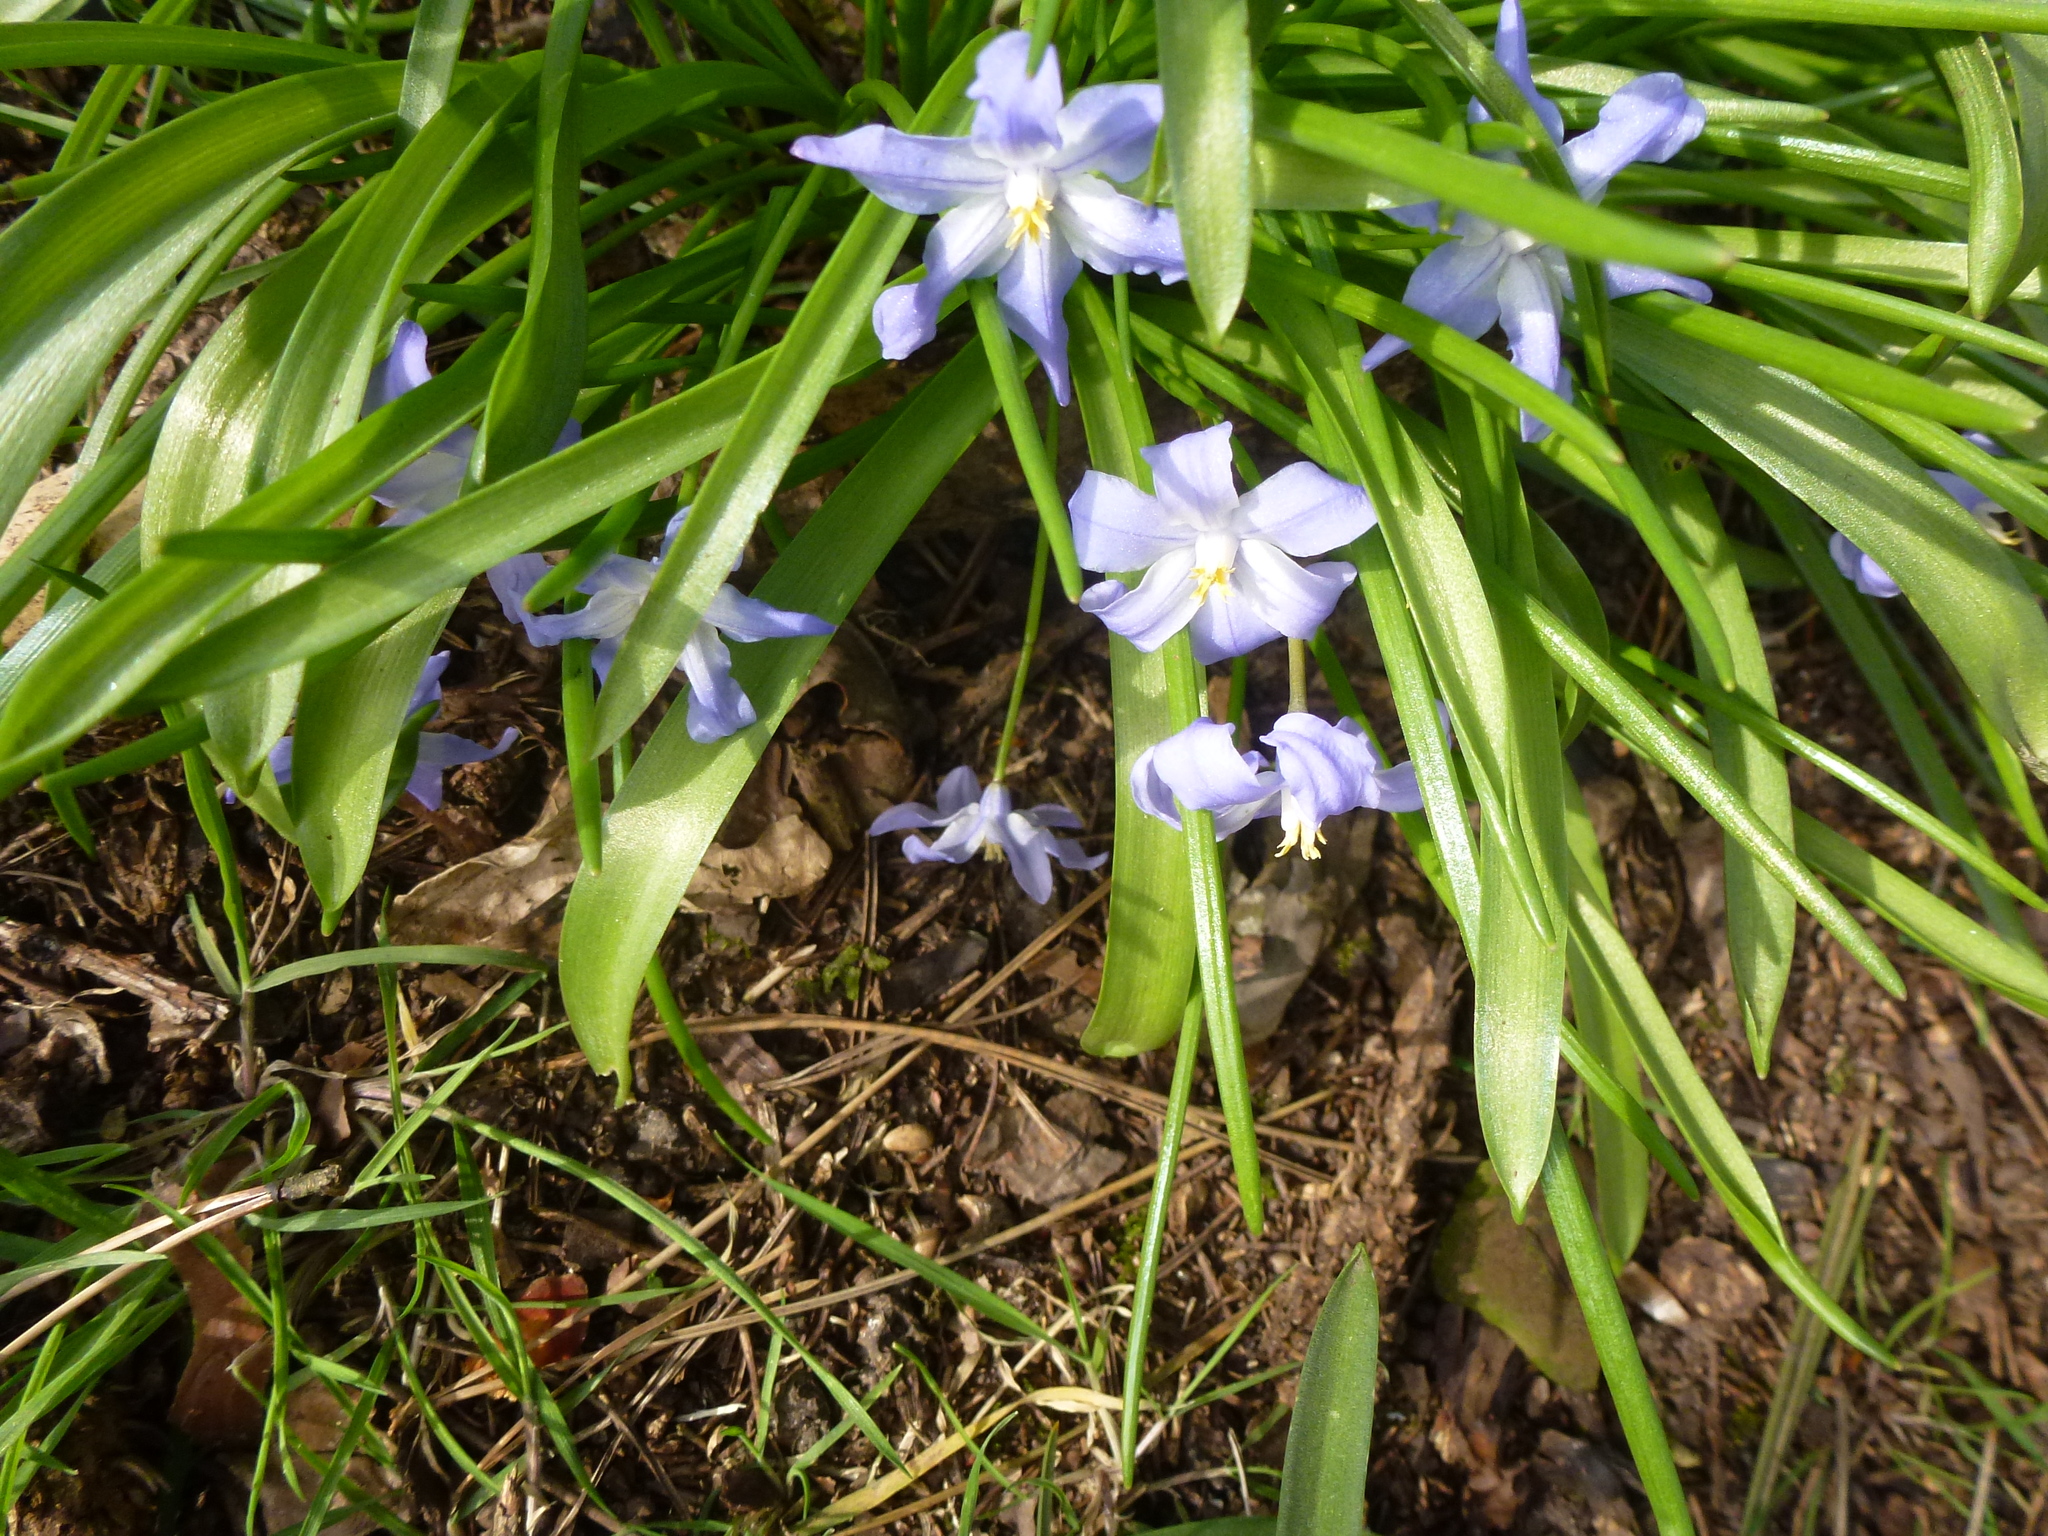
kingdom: Plantae
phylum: Tracheophyta
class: Liliopsida
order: Asparagales
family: Asparagaceae
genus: Scilla
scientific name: Scilla luciliae
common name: Boissier's glory-of-the-snow
